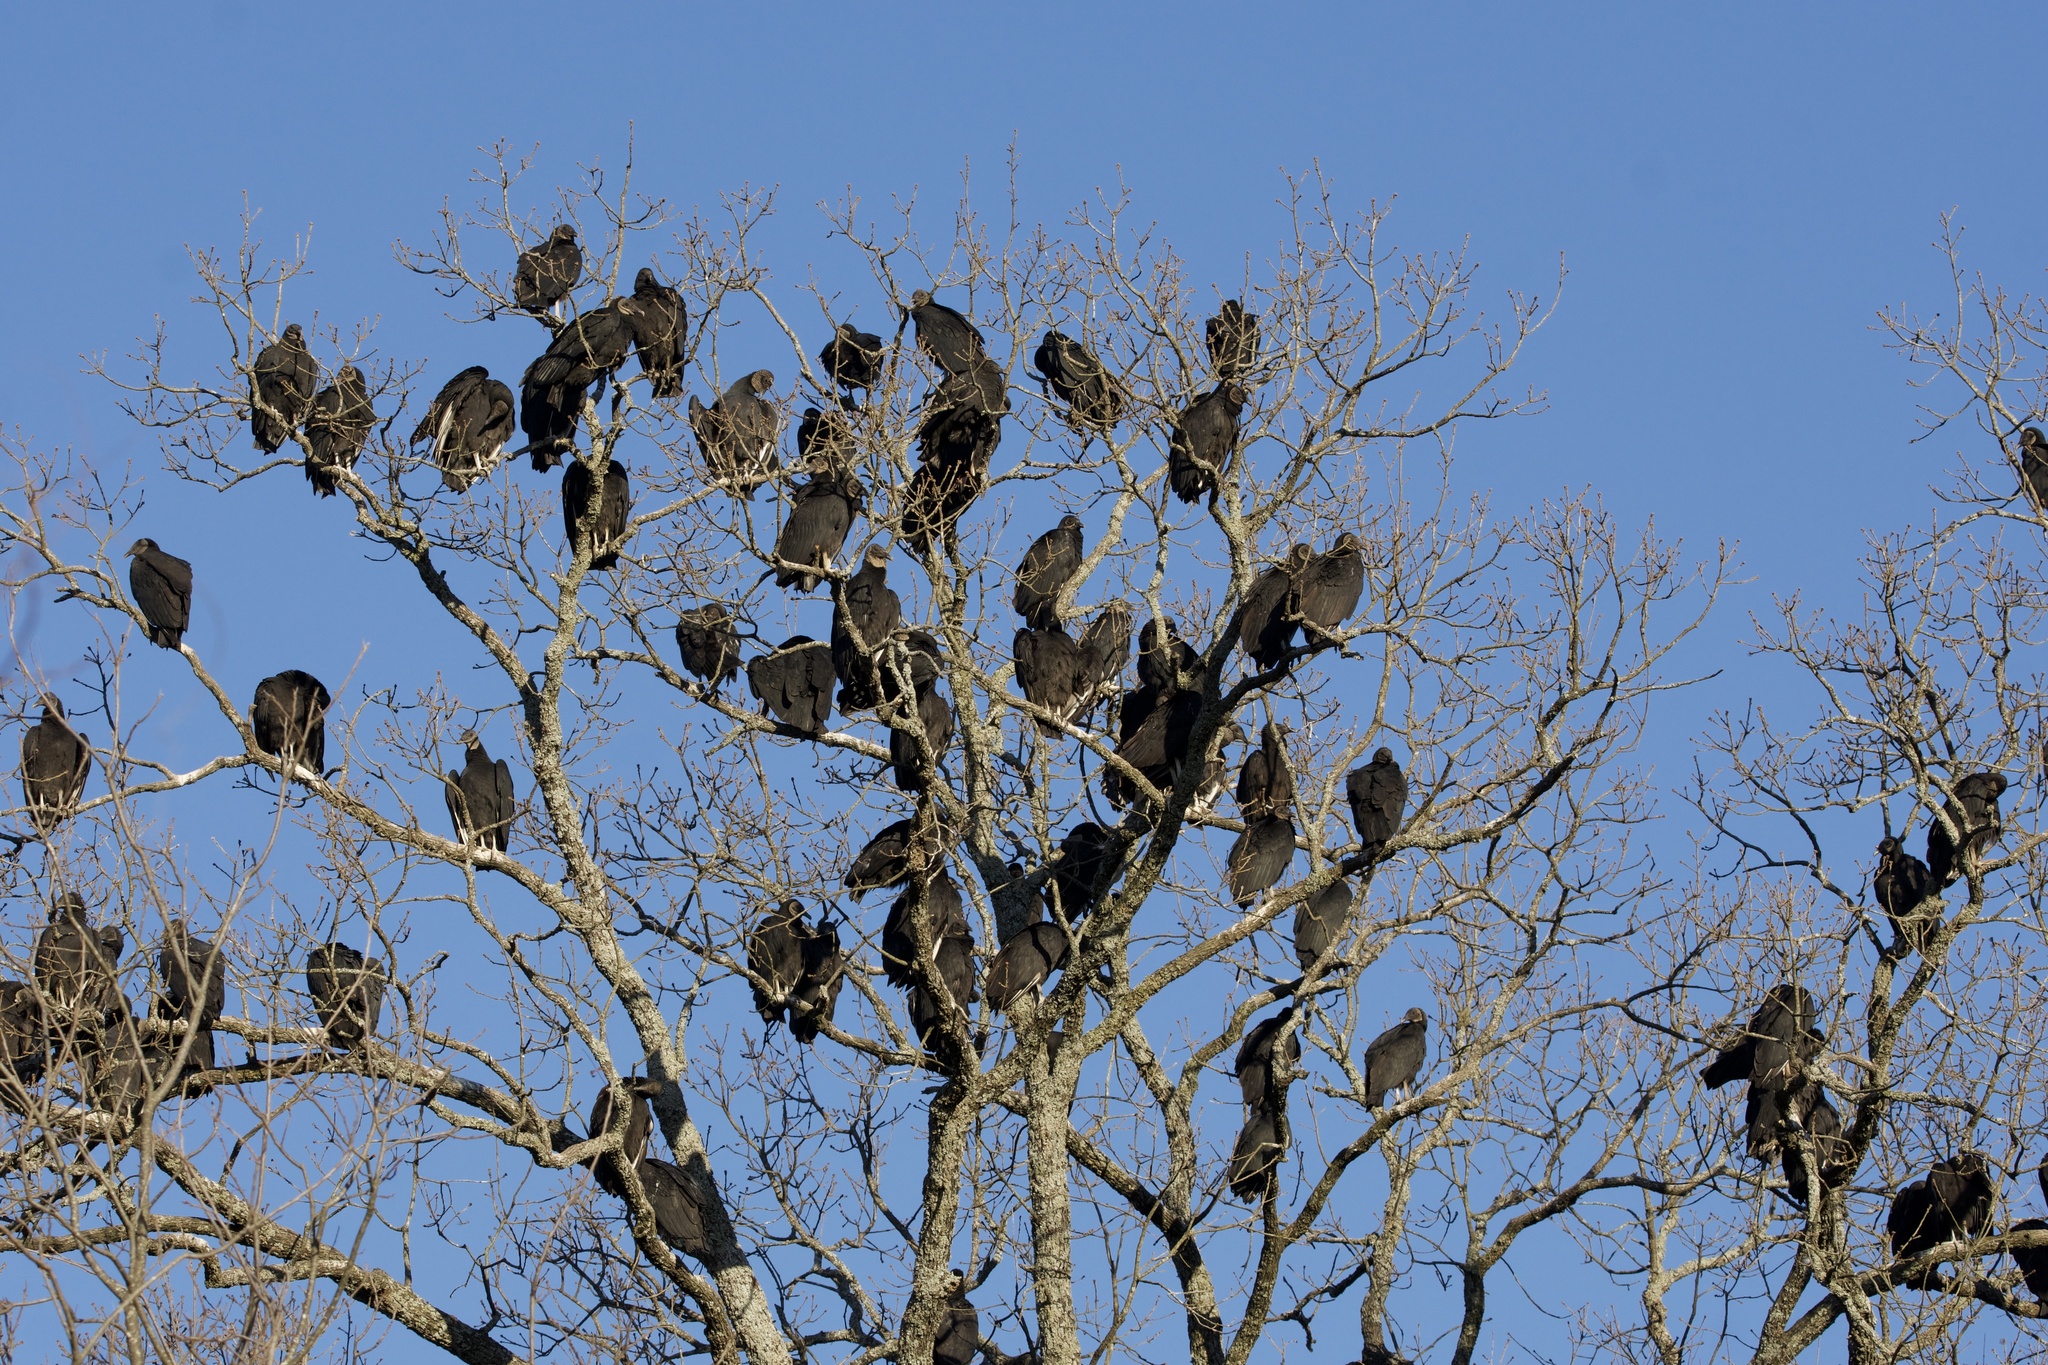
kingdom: Animalia
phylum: Chordata
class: Aves
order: Accipitriformes
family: Cathartidae
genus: Coragyps
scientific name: Coragyps atratus
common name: Black vulture
